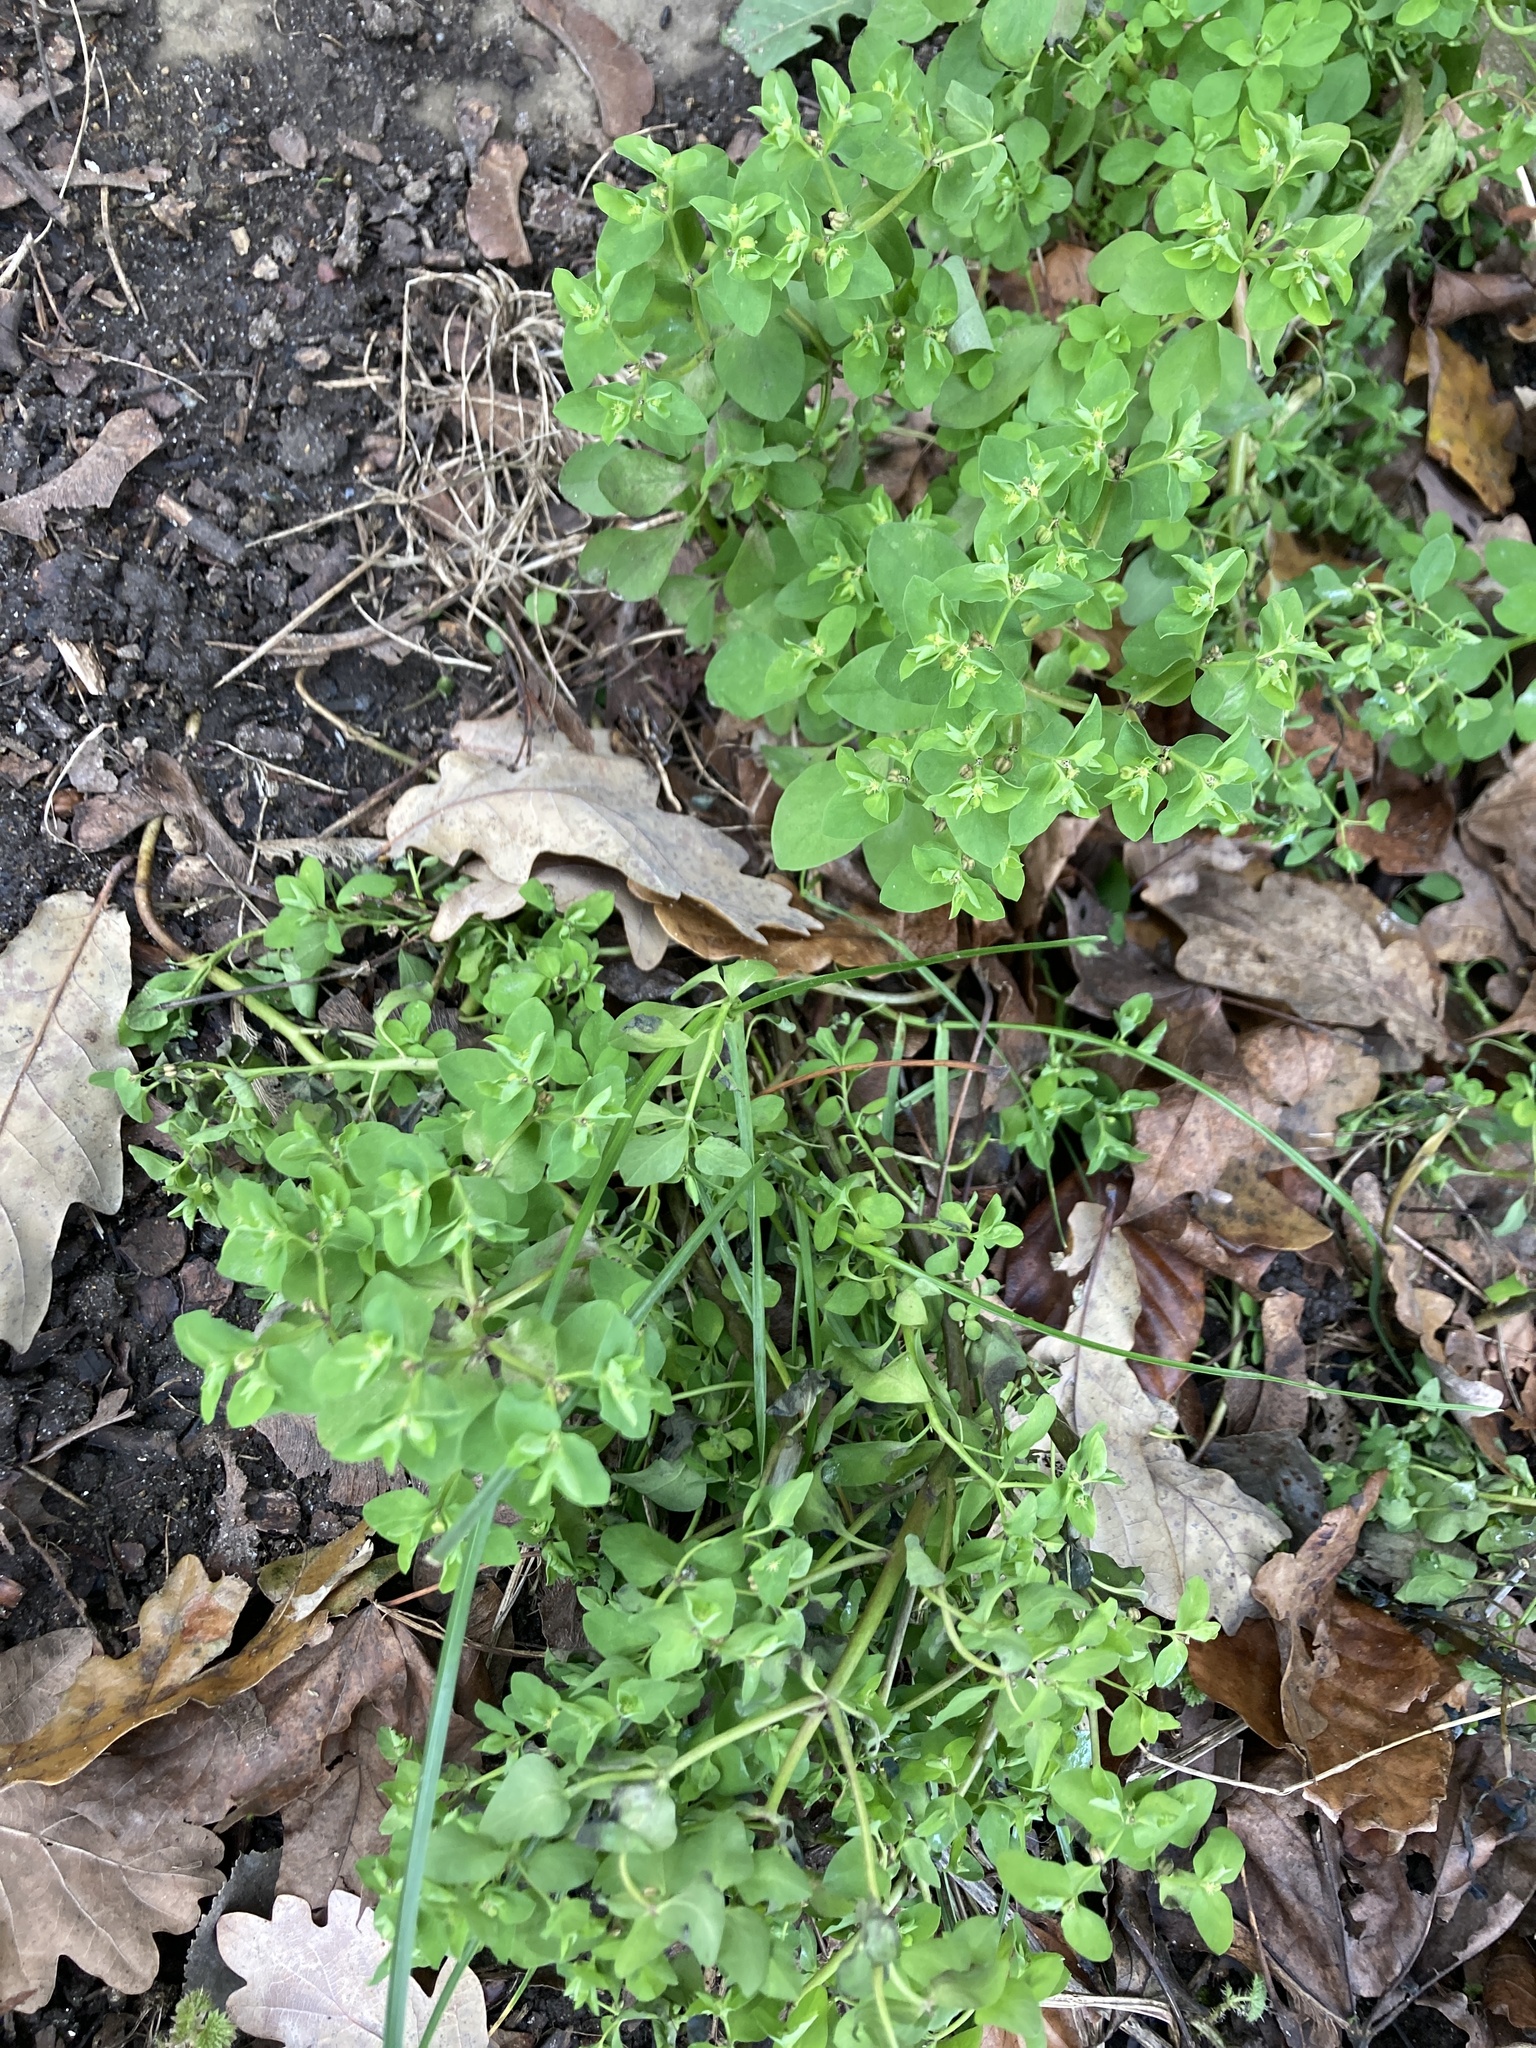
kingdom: Plantae
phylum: Tracheophyta
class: Magnoliopsida
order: Malpighiales
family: Euphorbiaceae
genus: Euphorbia
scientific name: Euphorbia peplus
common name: Petty spurge
